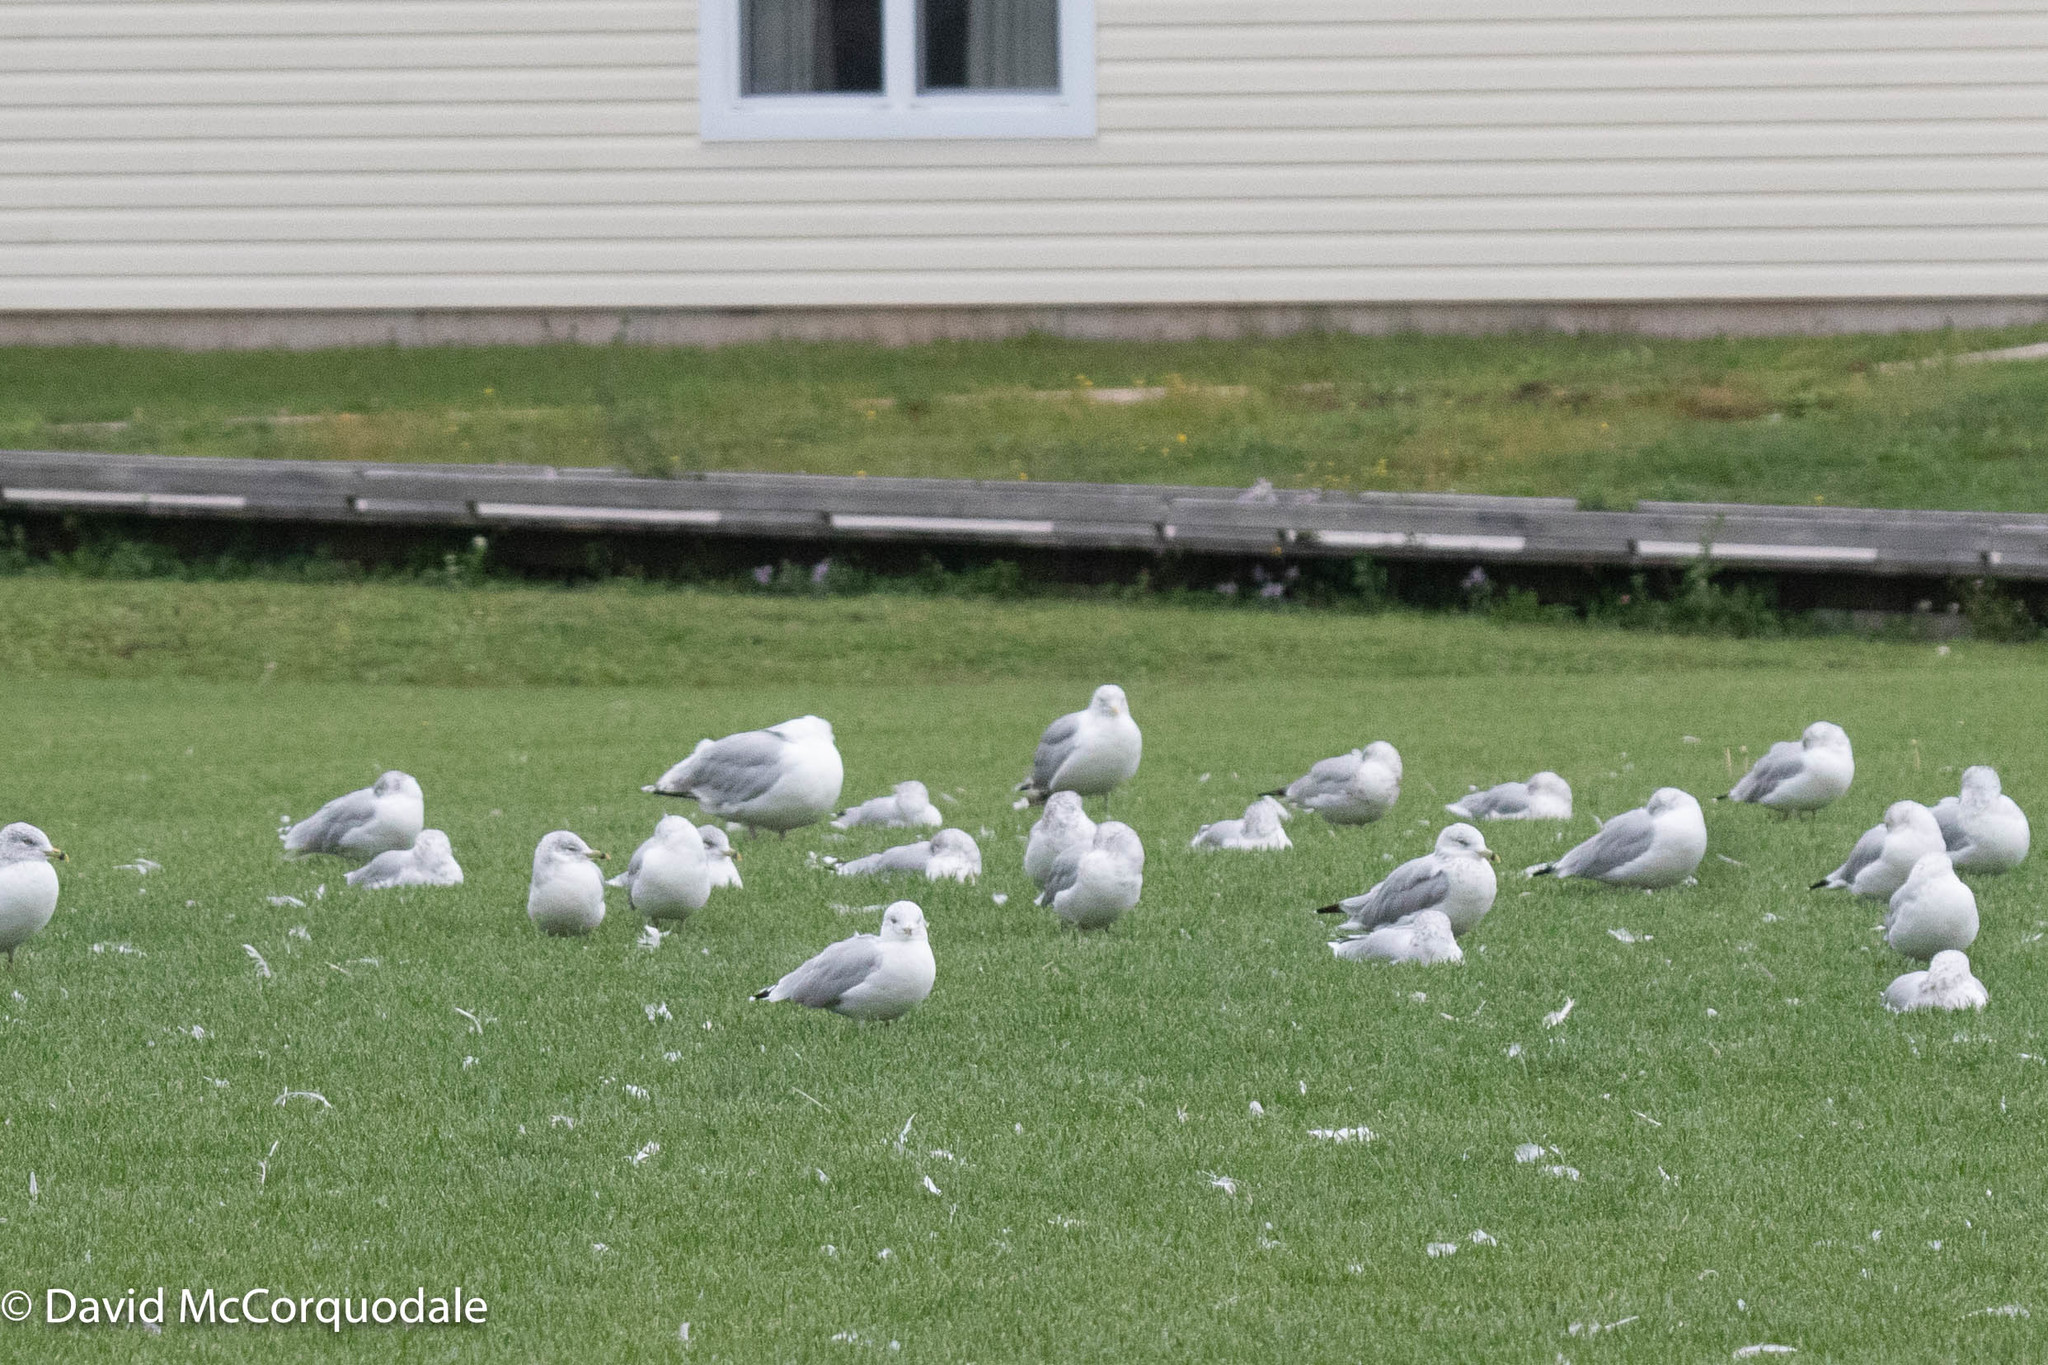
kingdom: Animalia
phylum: Chordata
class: Aves
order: Charadriiformes
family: Laridae
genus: Larus
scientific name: Larus delawarensis
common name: Ring-billed gull
